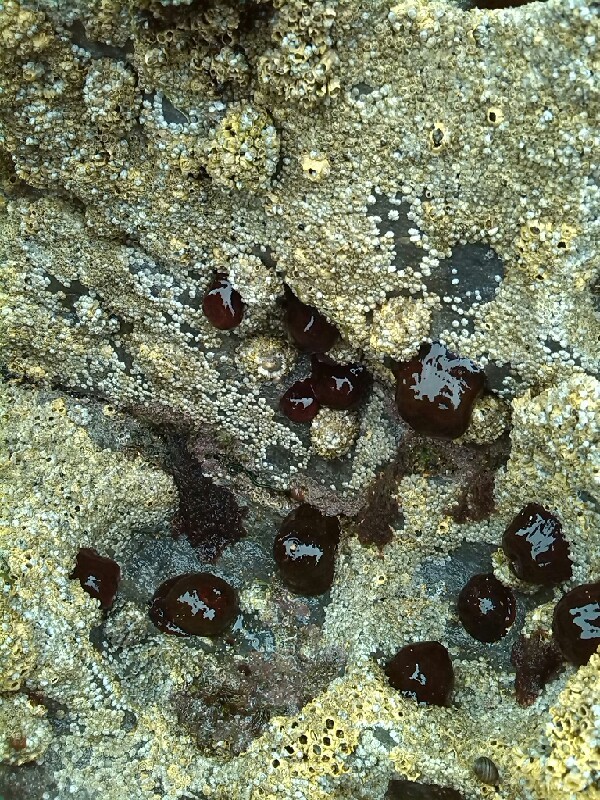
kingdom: Animalia
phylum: Cnidaria
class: Anthozoa
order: Actiniaria
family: Actiniidae
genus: Actinia
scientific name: Actinia equina
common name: Beadlet anemone
